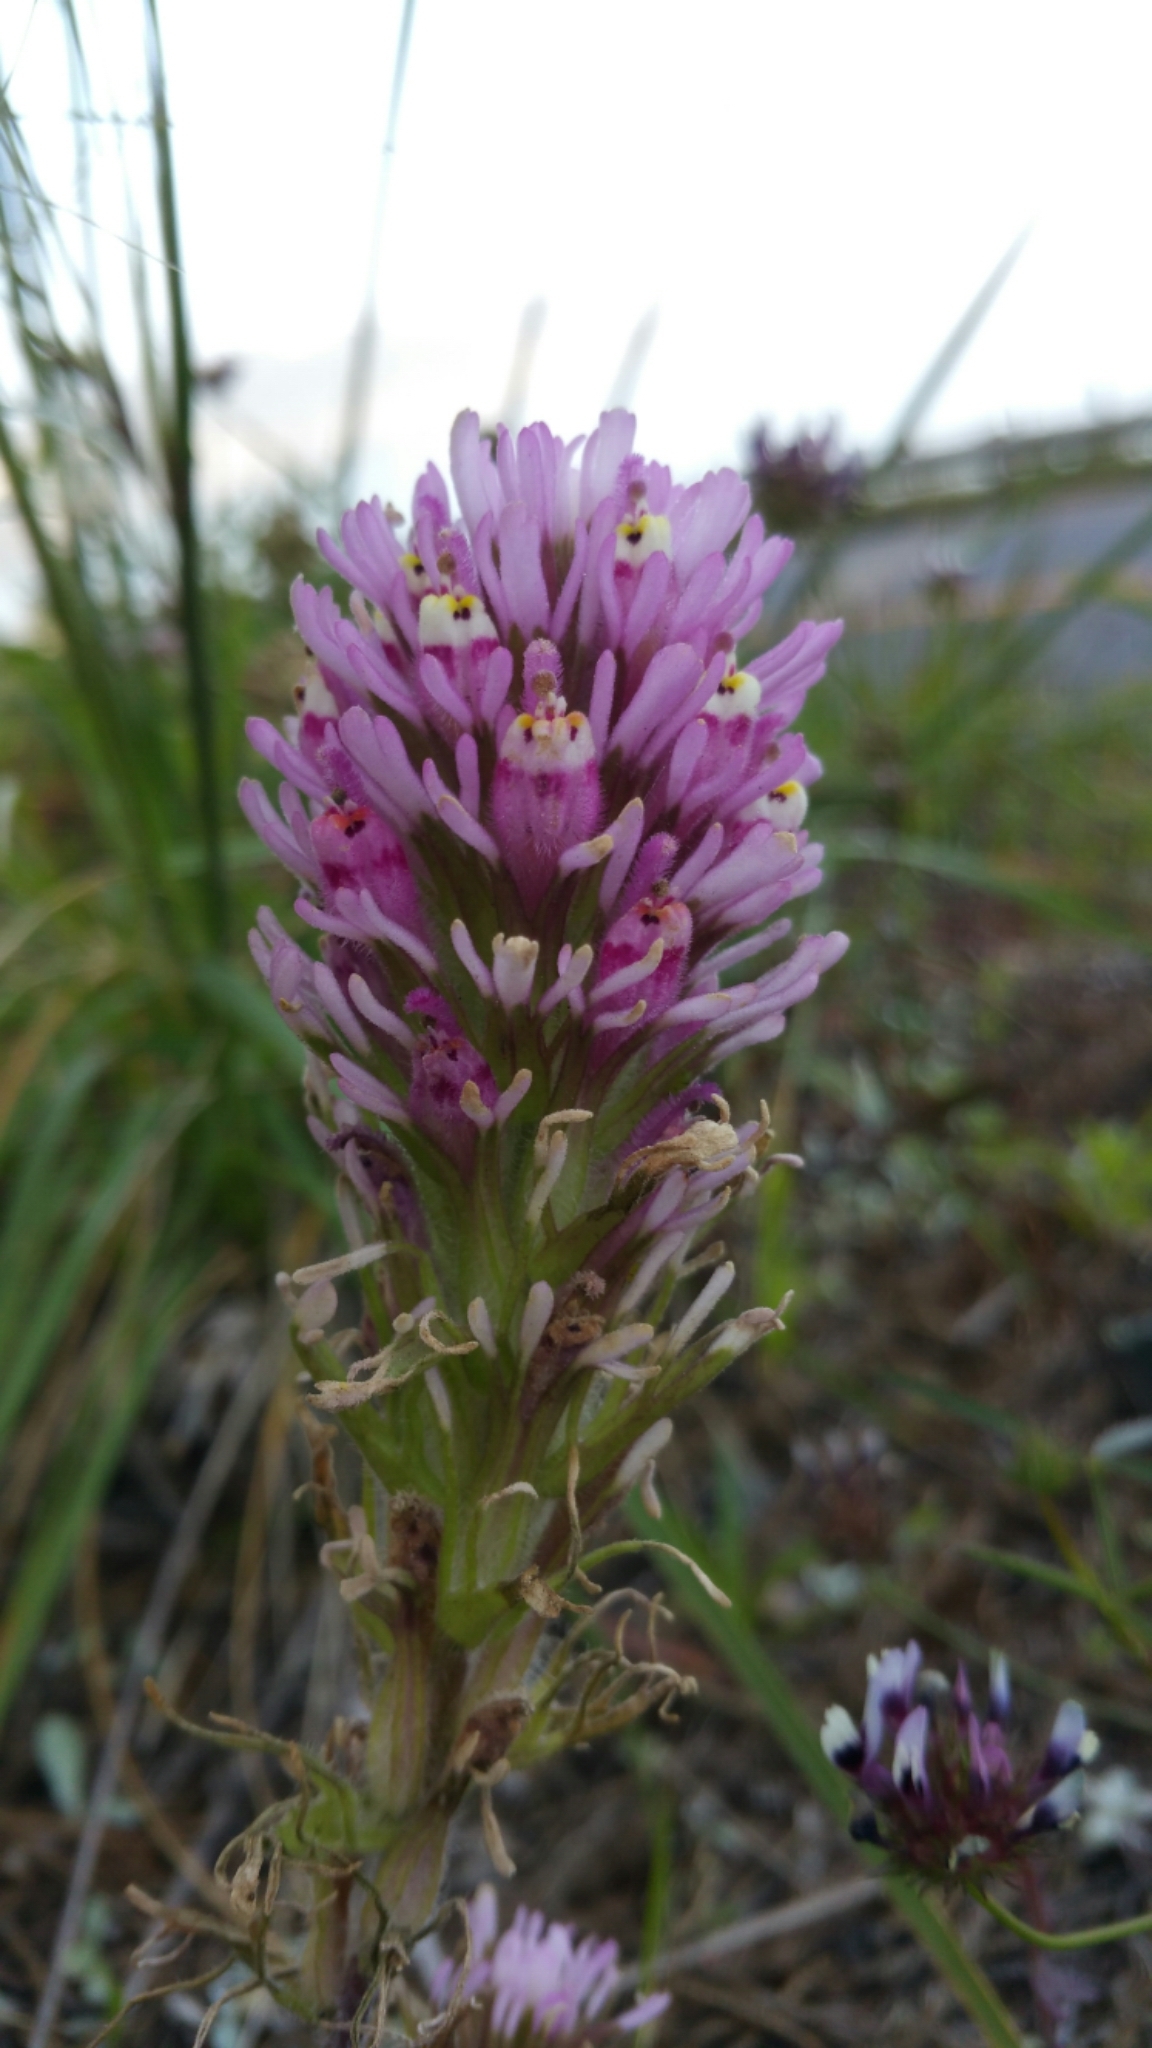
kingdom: Plantae
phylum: Tracheophyta
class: Magnoliopsida
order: Lamiales
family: Orobanchaceae
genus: Castilleja
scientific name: Castilleja exserta
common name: Purple owl-clover
